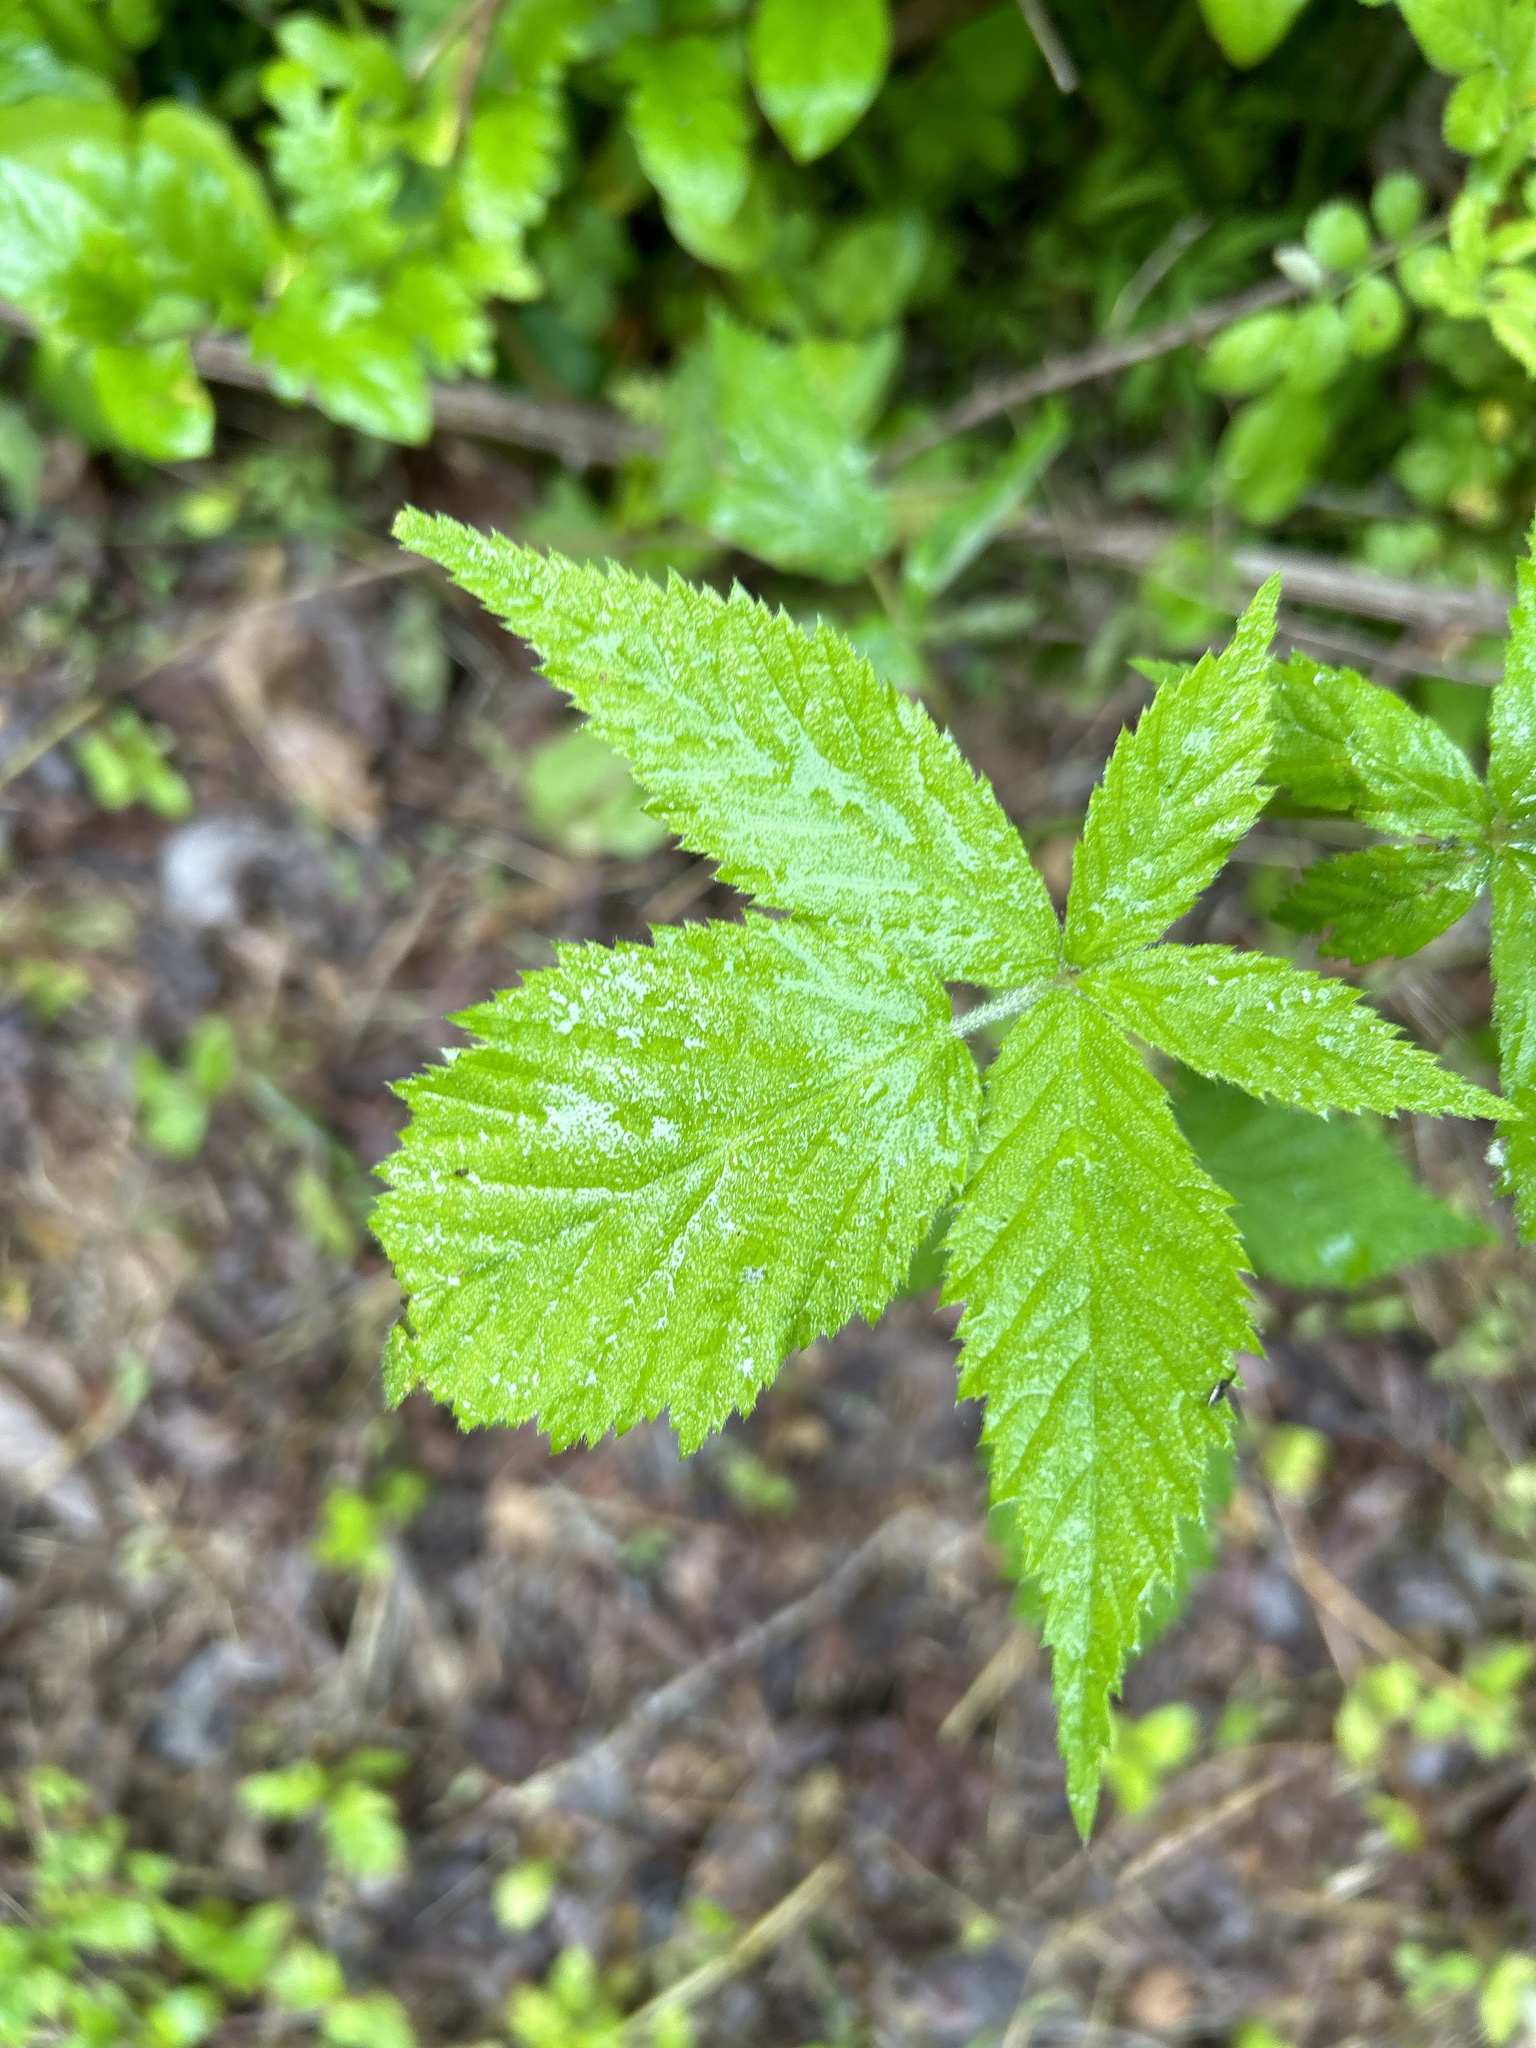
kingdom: Plantae
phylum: Tracheophyta
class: Magnoliopsida
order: Rosales
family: Rosaceae
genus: Rubus
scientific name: Rubus allegheniensis
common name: Allegheny blackberry
